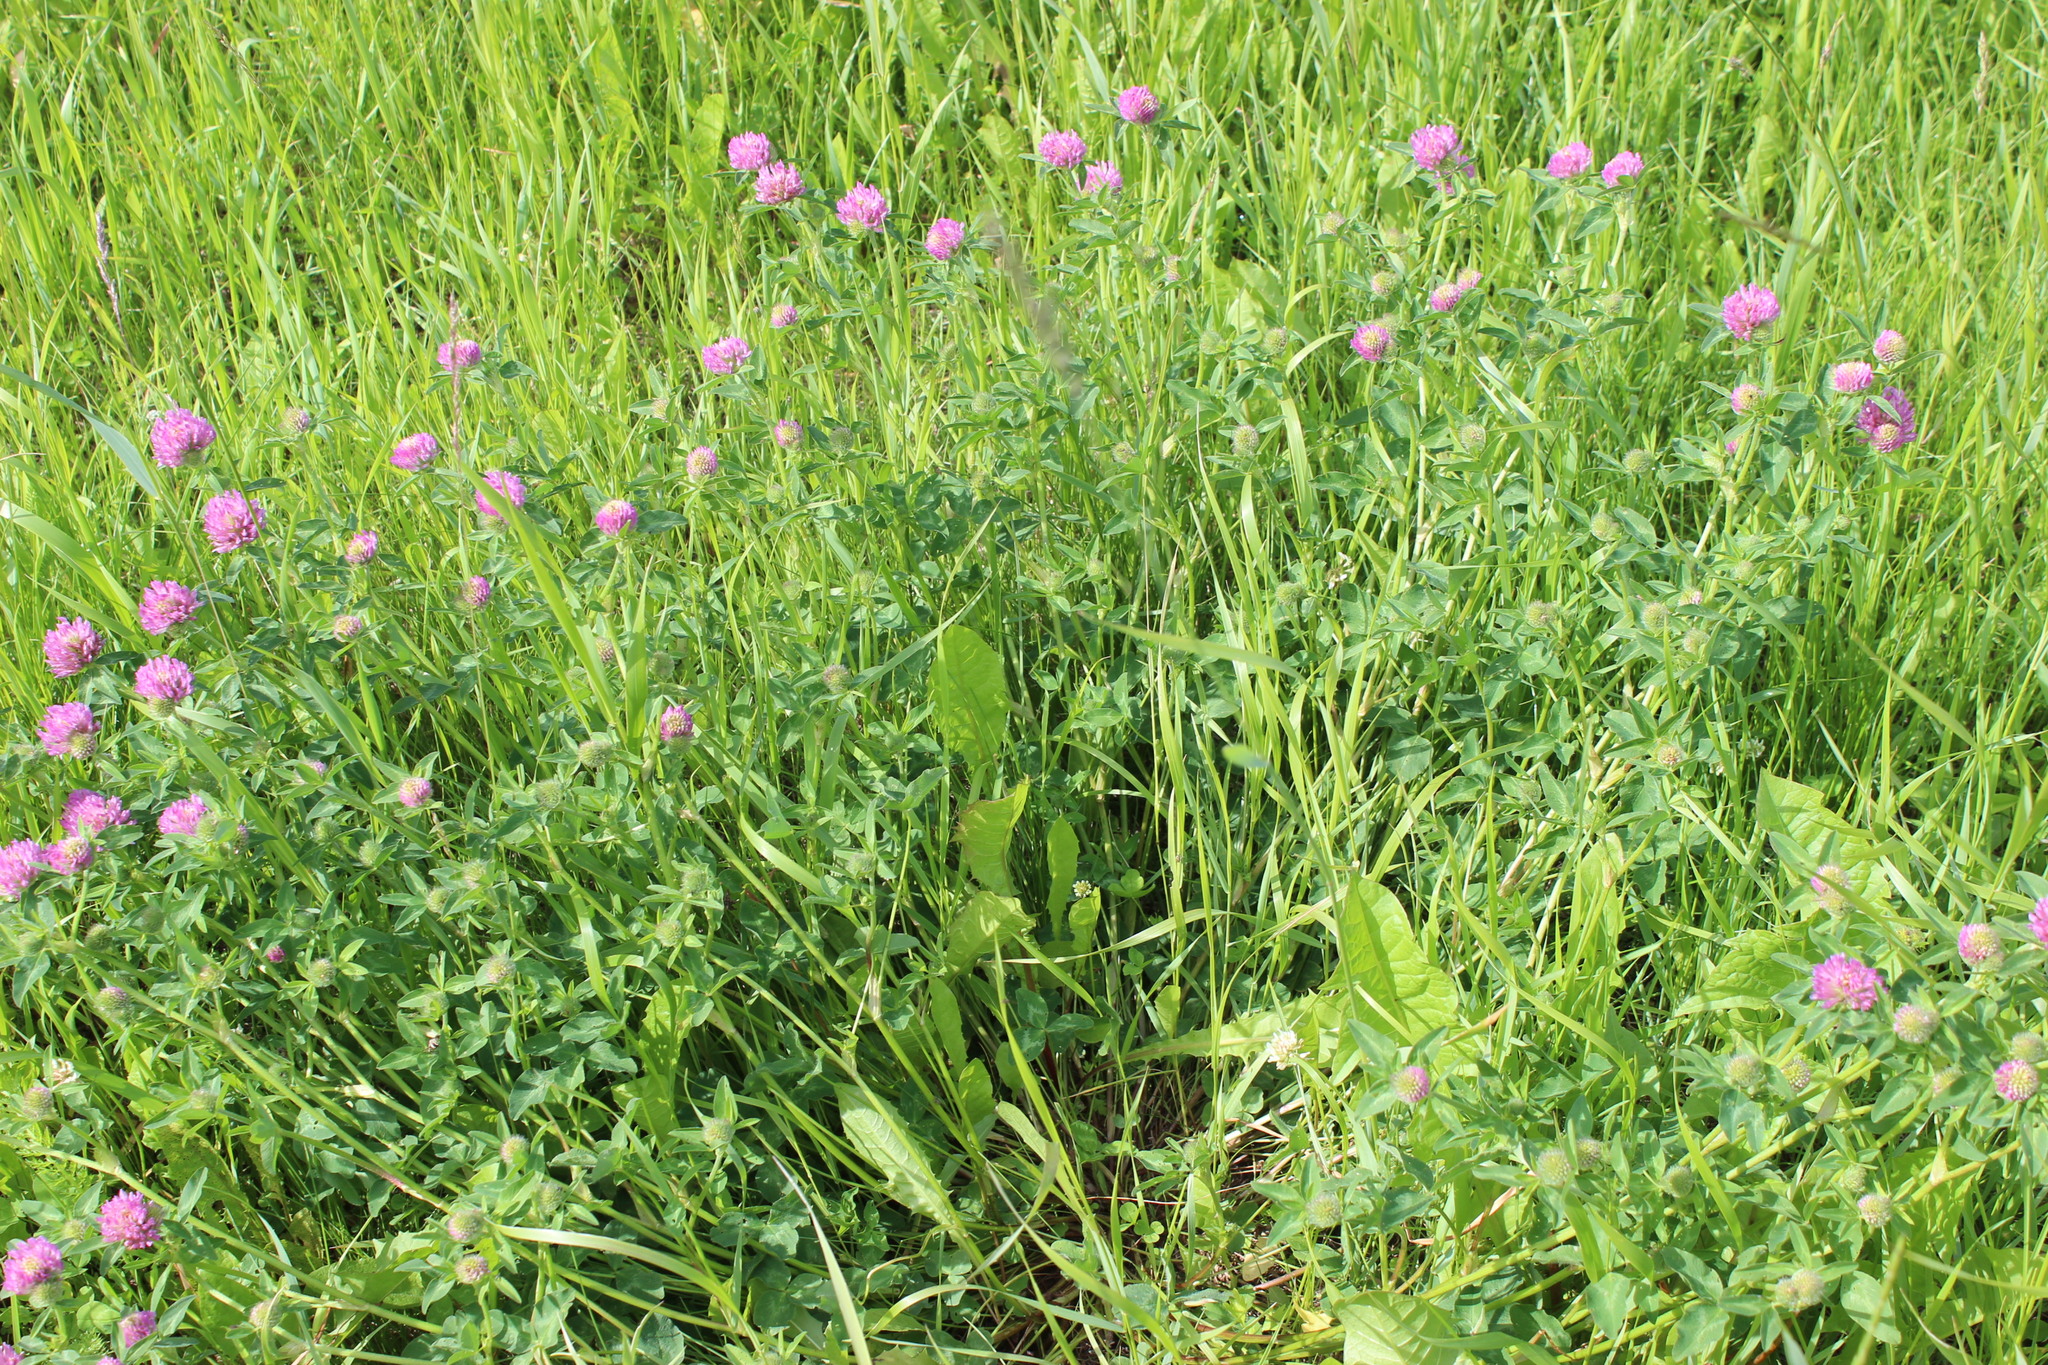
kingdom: Plantae
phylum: Tracheophyta
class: Magnoliopsida
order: Fabales
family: Fabaceae
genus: Trifolium
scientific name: Trifolium pratense
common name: Red clover
